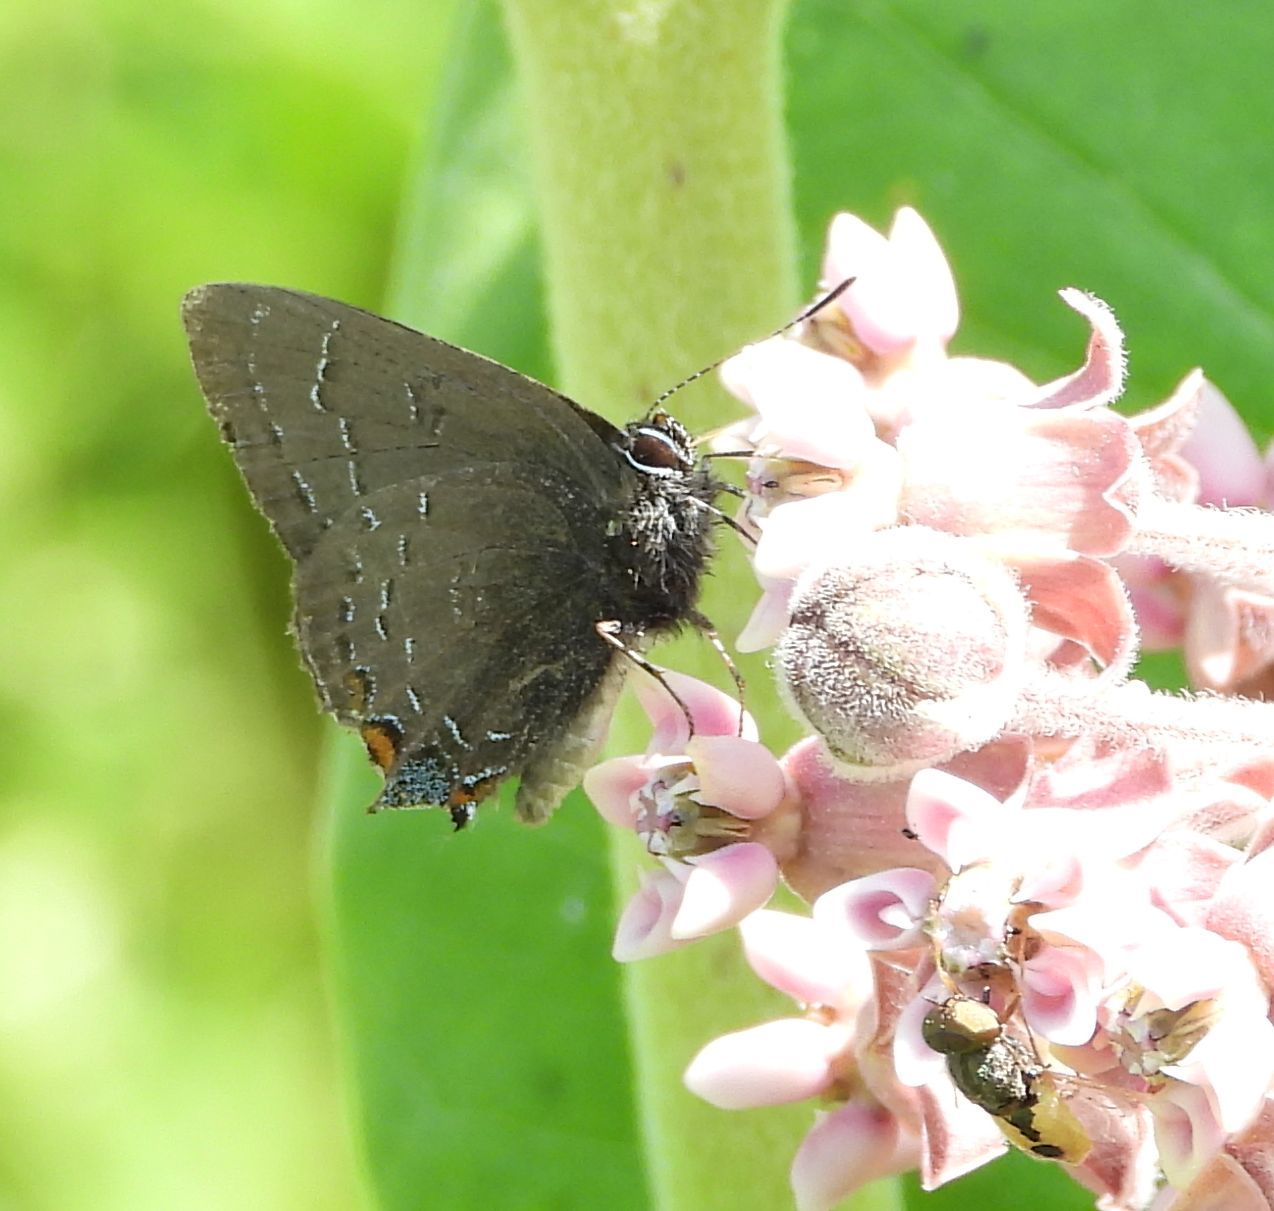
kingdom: Animalia
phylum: Arthropoda
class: Insecta
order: Lepidoptera
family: Lycaenidae
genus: Satyrium
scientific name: Satyrium calanus
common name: Banded hairstreak
